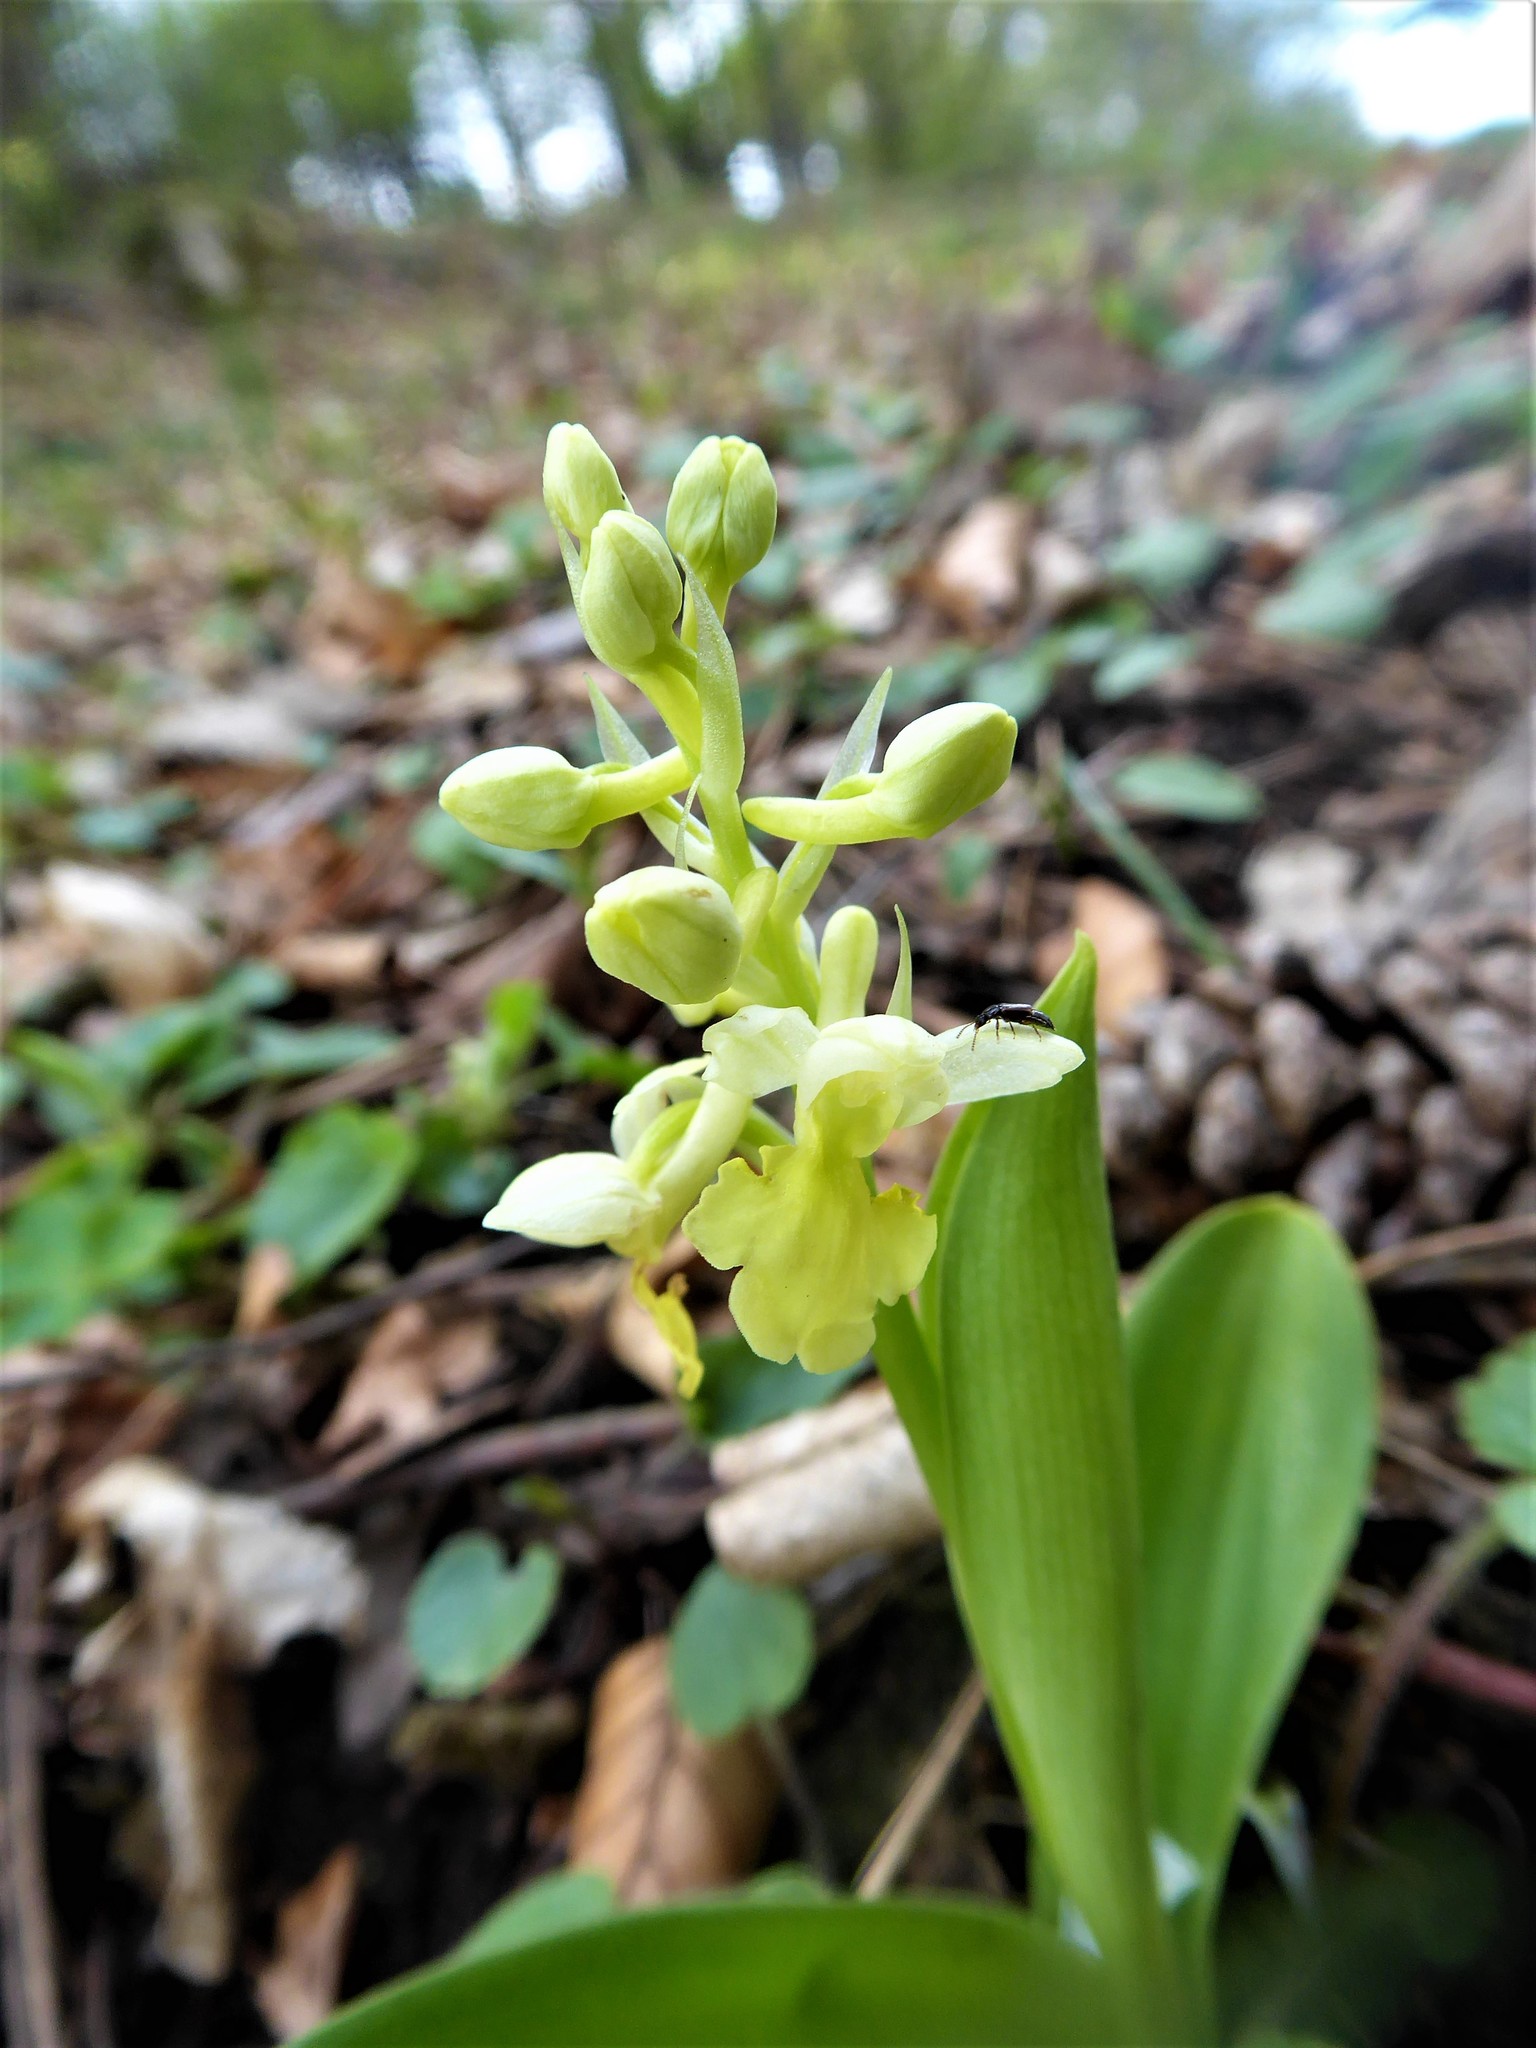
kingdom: Plantae
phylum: Tracheophyta
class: Liliopsida
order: Asparagales
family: Orchidaceae
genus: Orchis
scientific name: Orchis pallens
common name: Pale-flowered orchid
